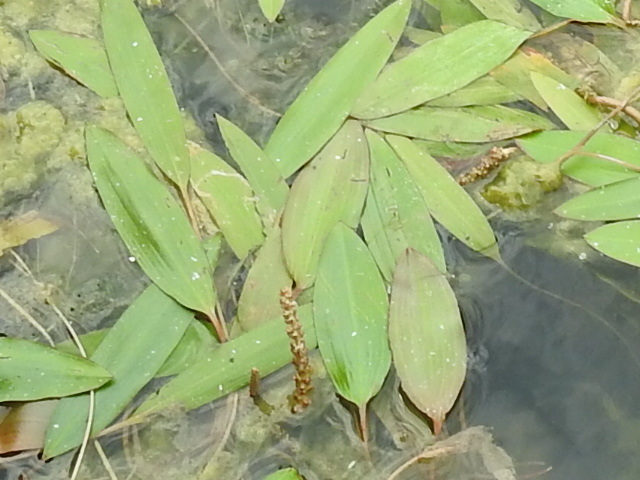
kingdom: Plantae
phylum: Tracheophyta
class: Liliopsida
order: Alismatales
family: Potamogetonaceae
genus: Potamogeton
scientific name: Potamogeton nodosus
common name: Loddon pondweed
